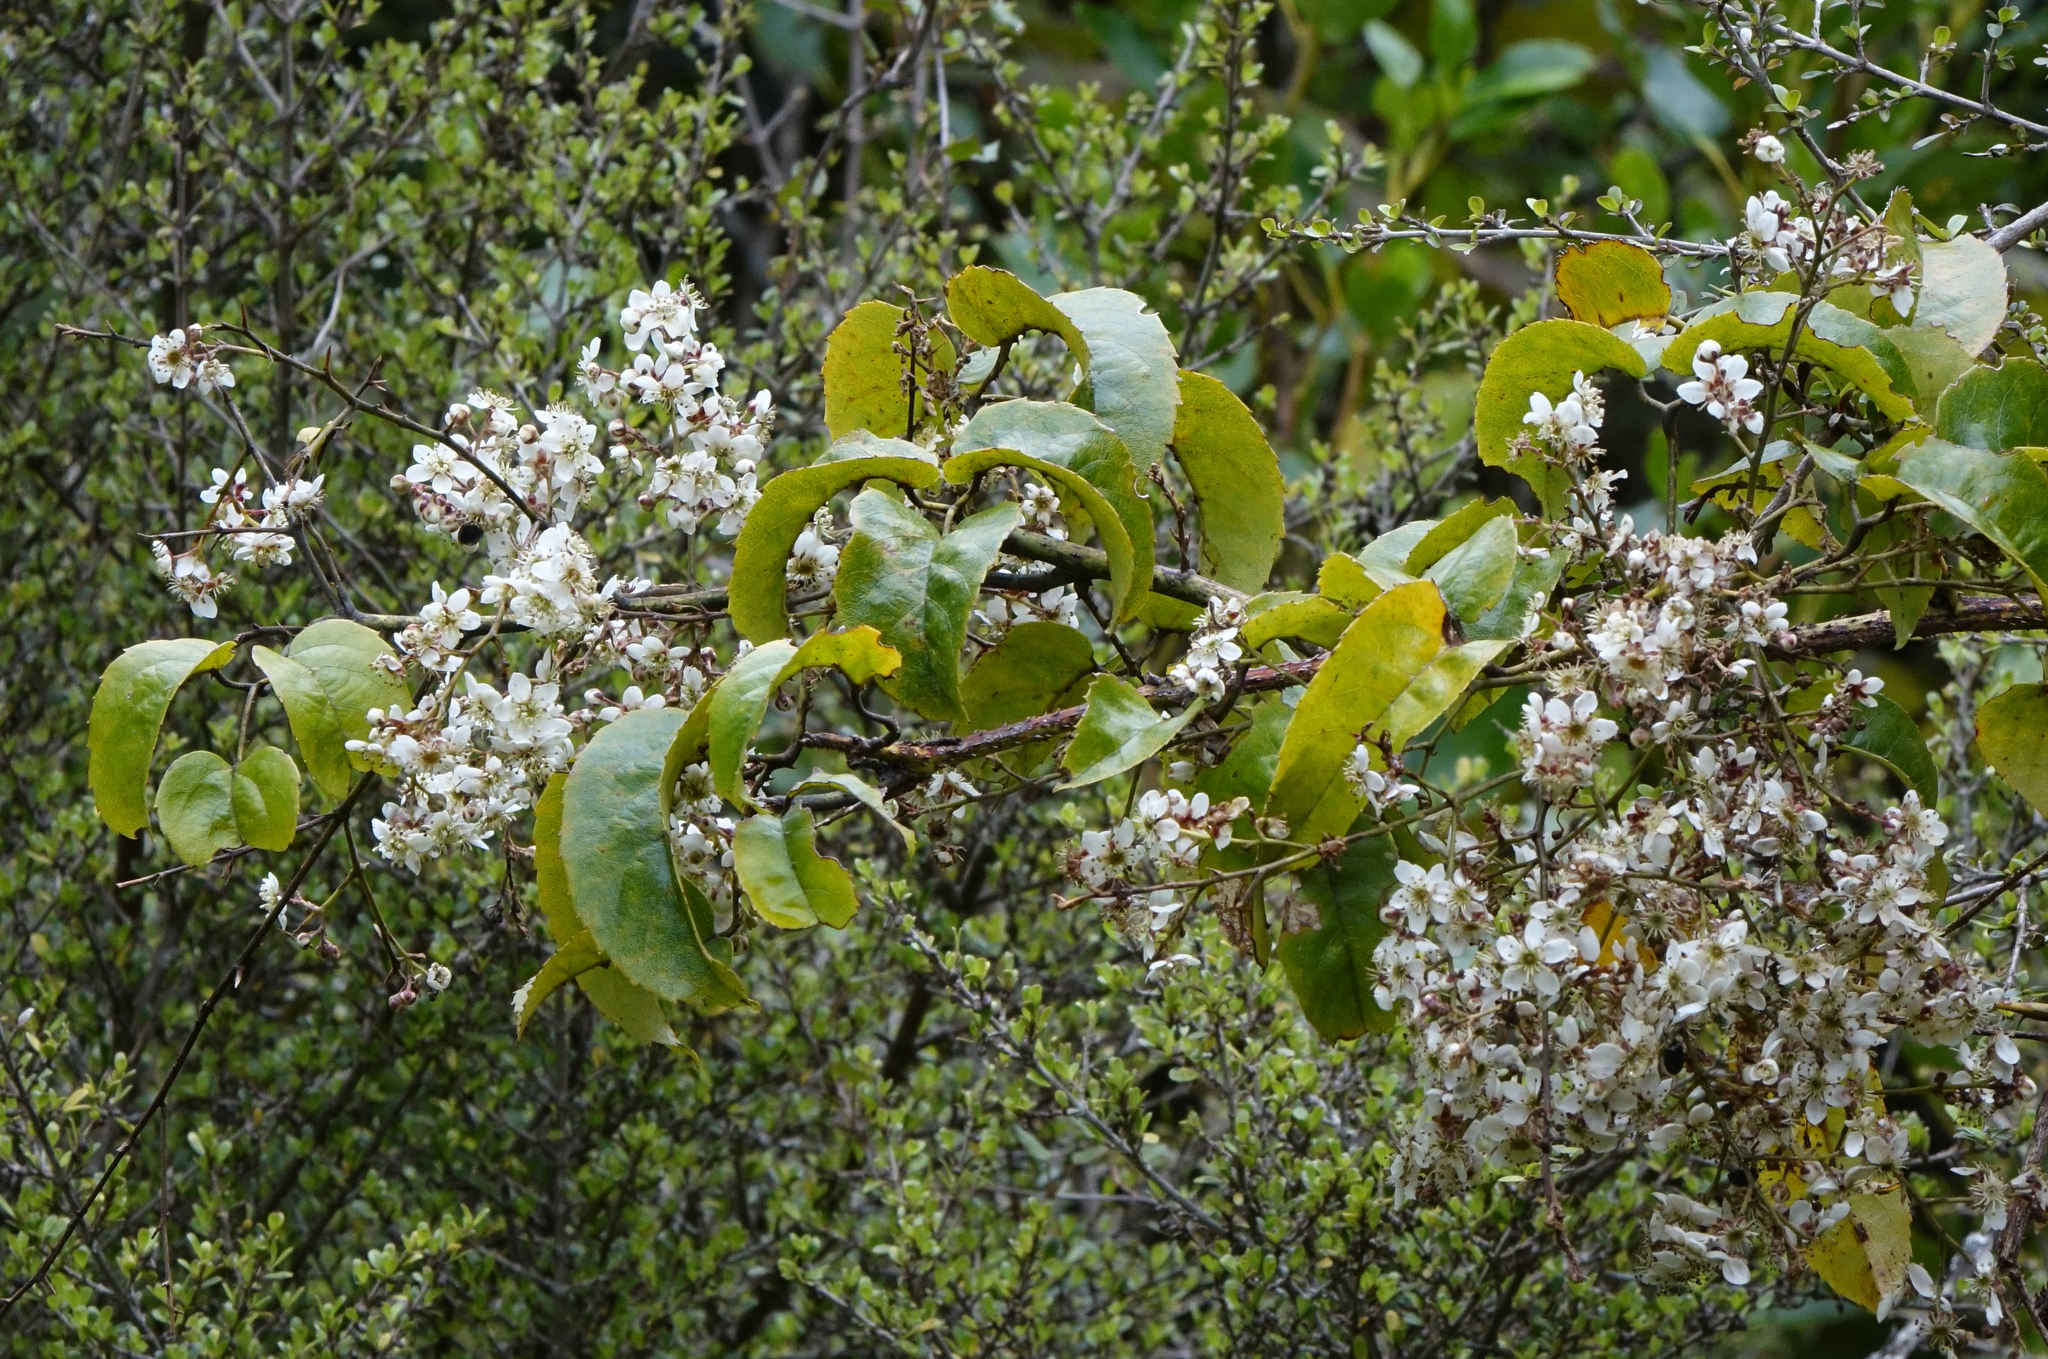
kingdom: Plantae
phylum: Tracheophyta
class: Magnoliopsida
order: Rosales
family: Rosaceae
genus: Rubus
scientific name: Rubus cissoides
